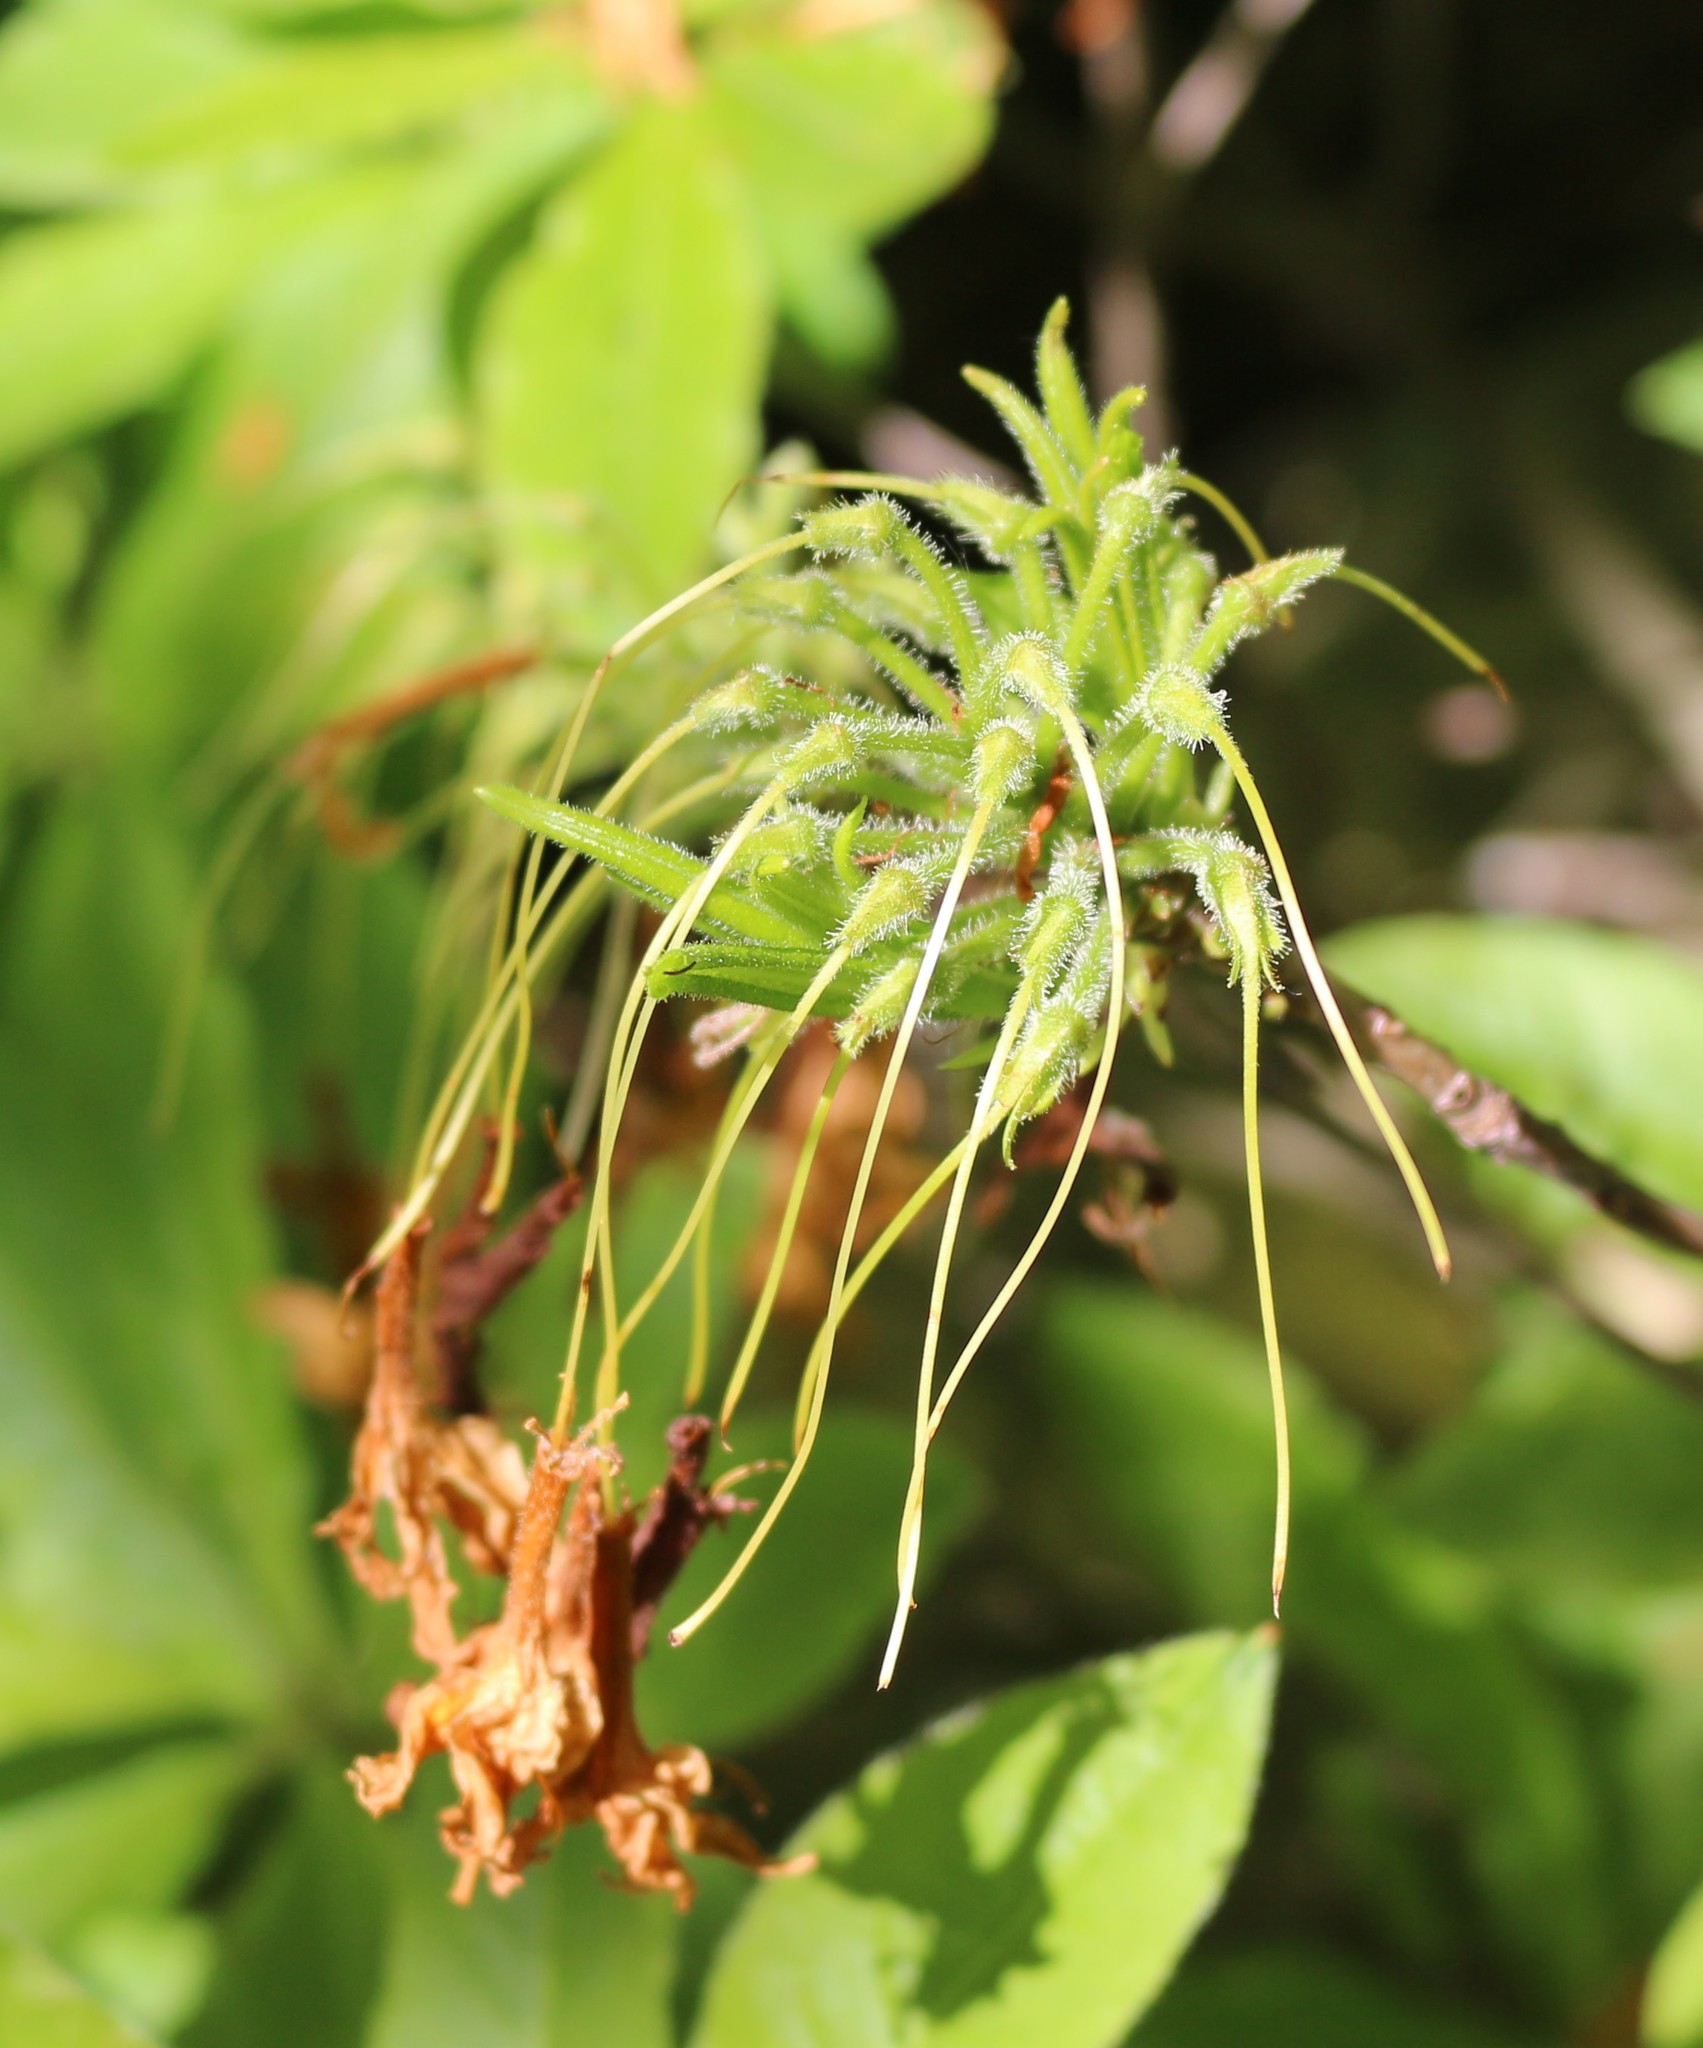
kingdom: Plantae
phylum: Tracheophyta
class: Magnoliopsida
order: Ericales
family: Ericaceae
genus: Rhododendron
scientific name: Rhododendron luteum
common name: Yellow azalea
